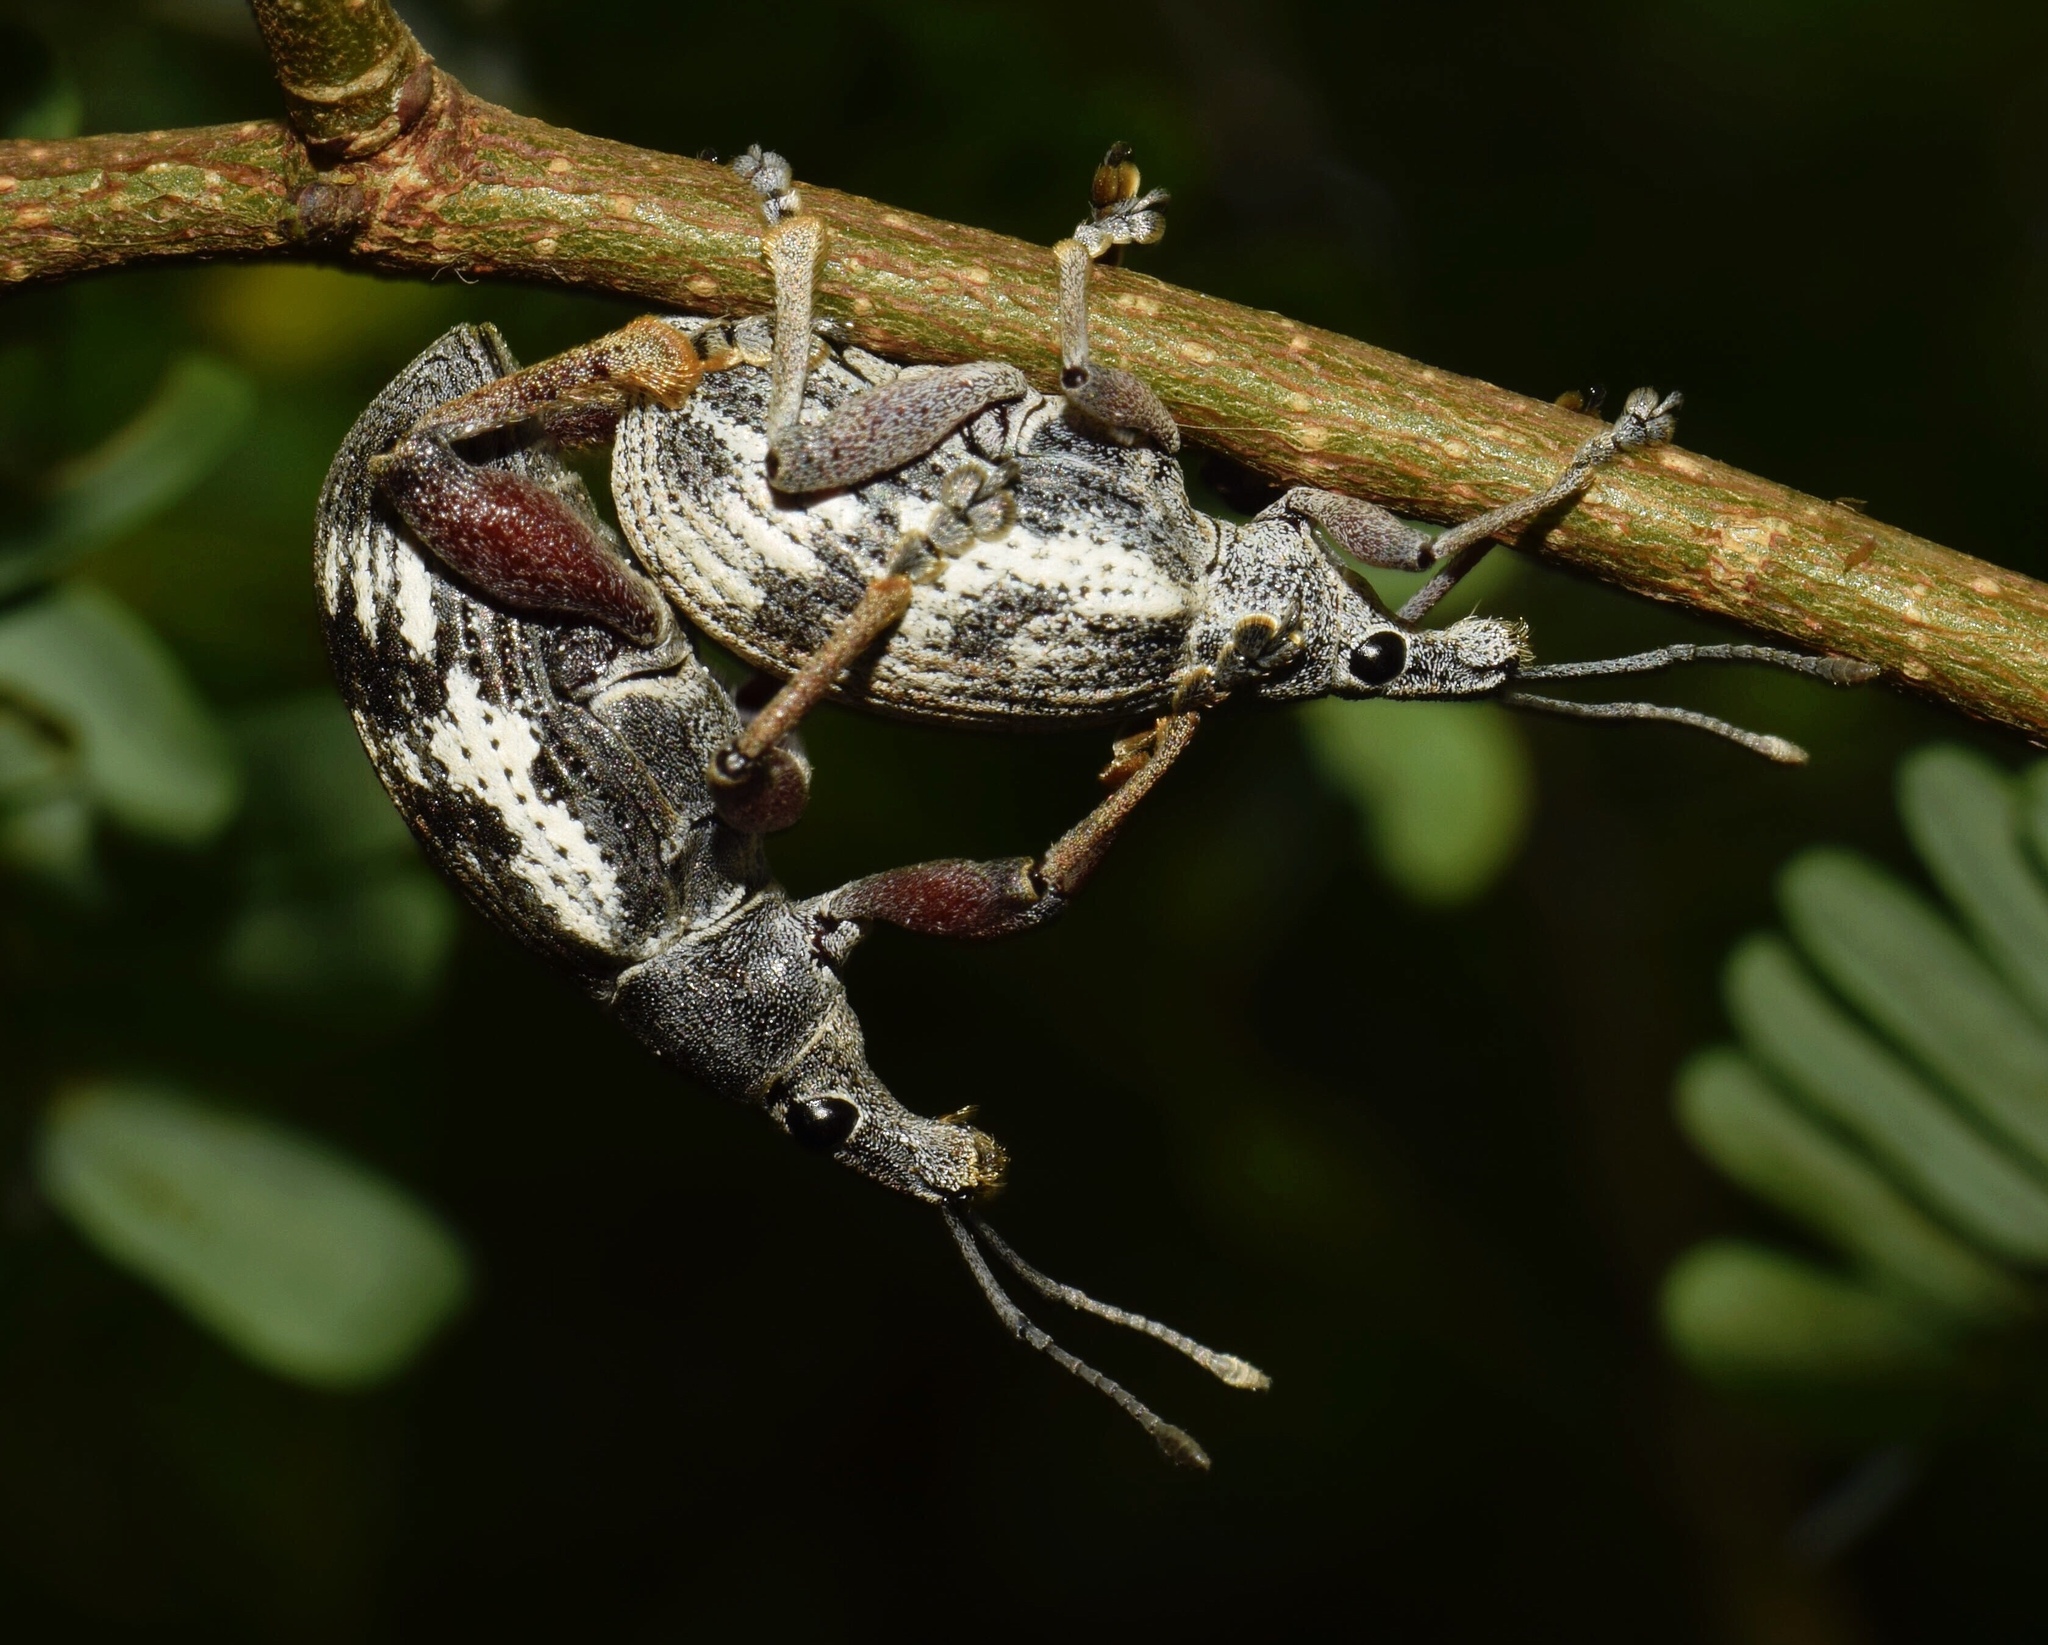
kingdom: Animalia
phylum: Arthropoda
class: Insecta
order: Coleoptera
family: Curculionidae
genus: Catamonus
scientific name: Catamonus melancholicus
